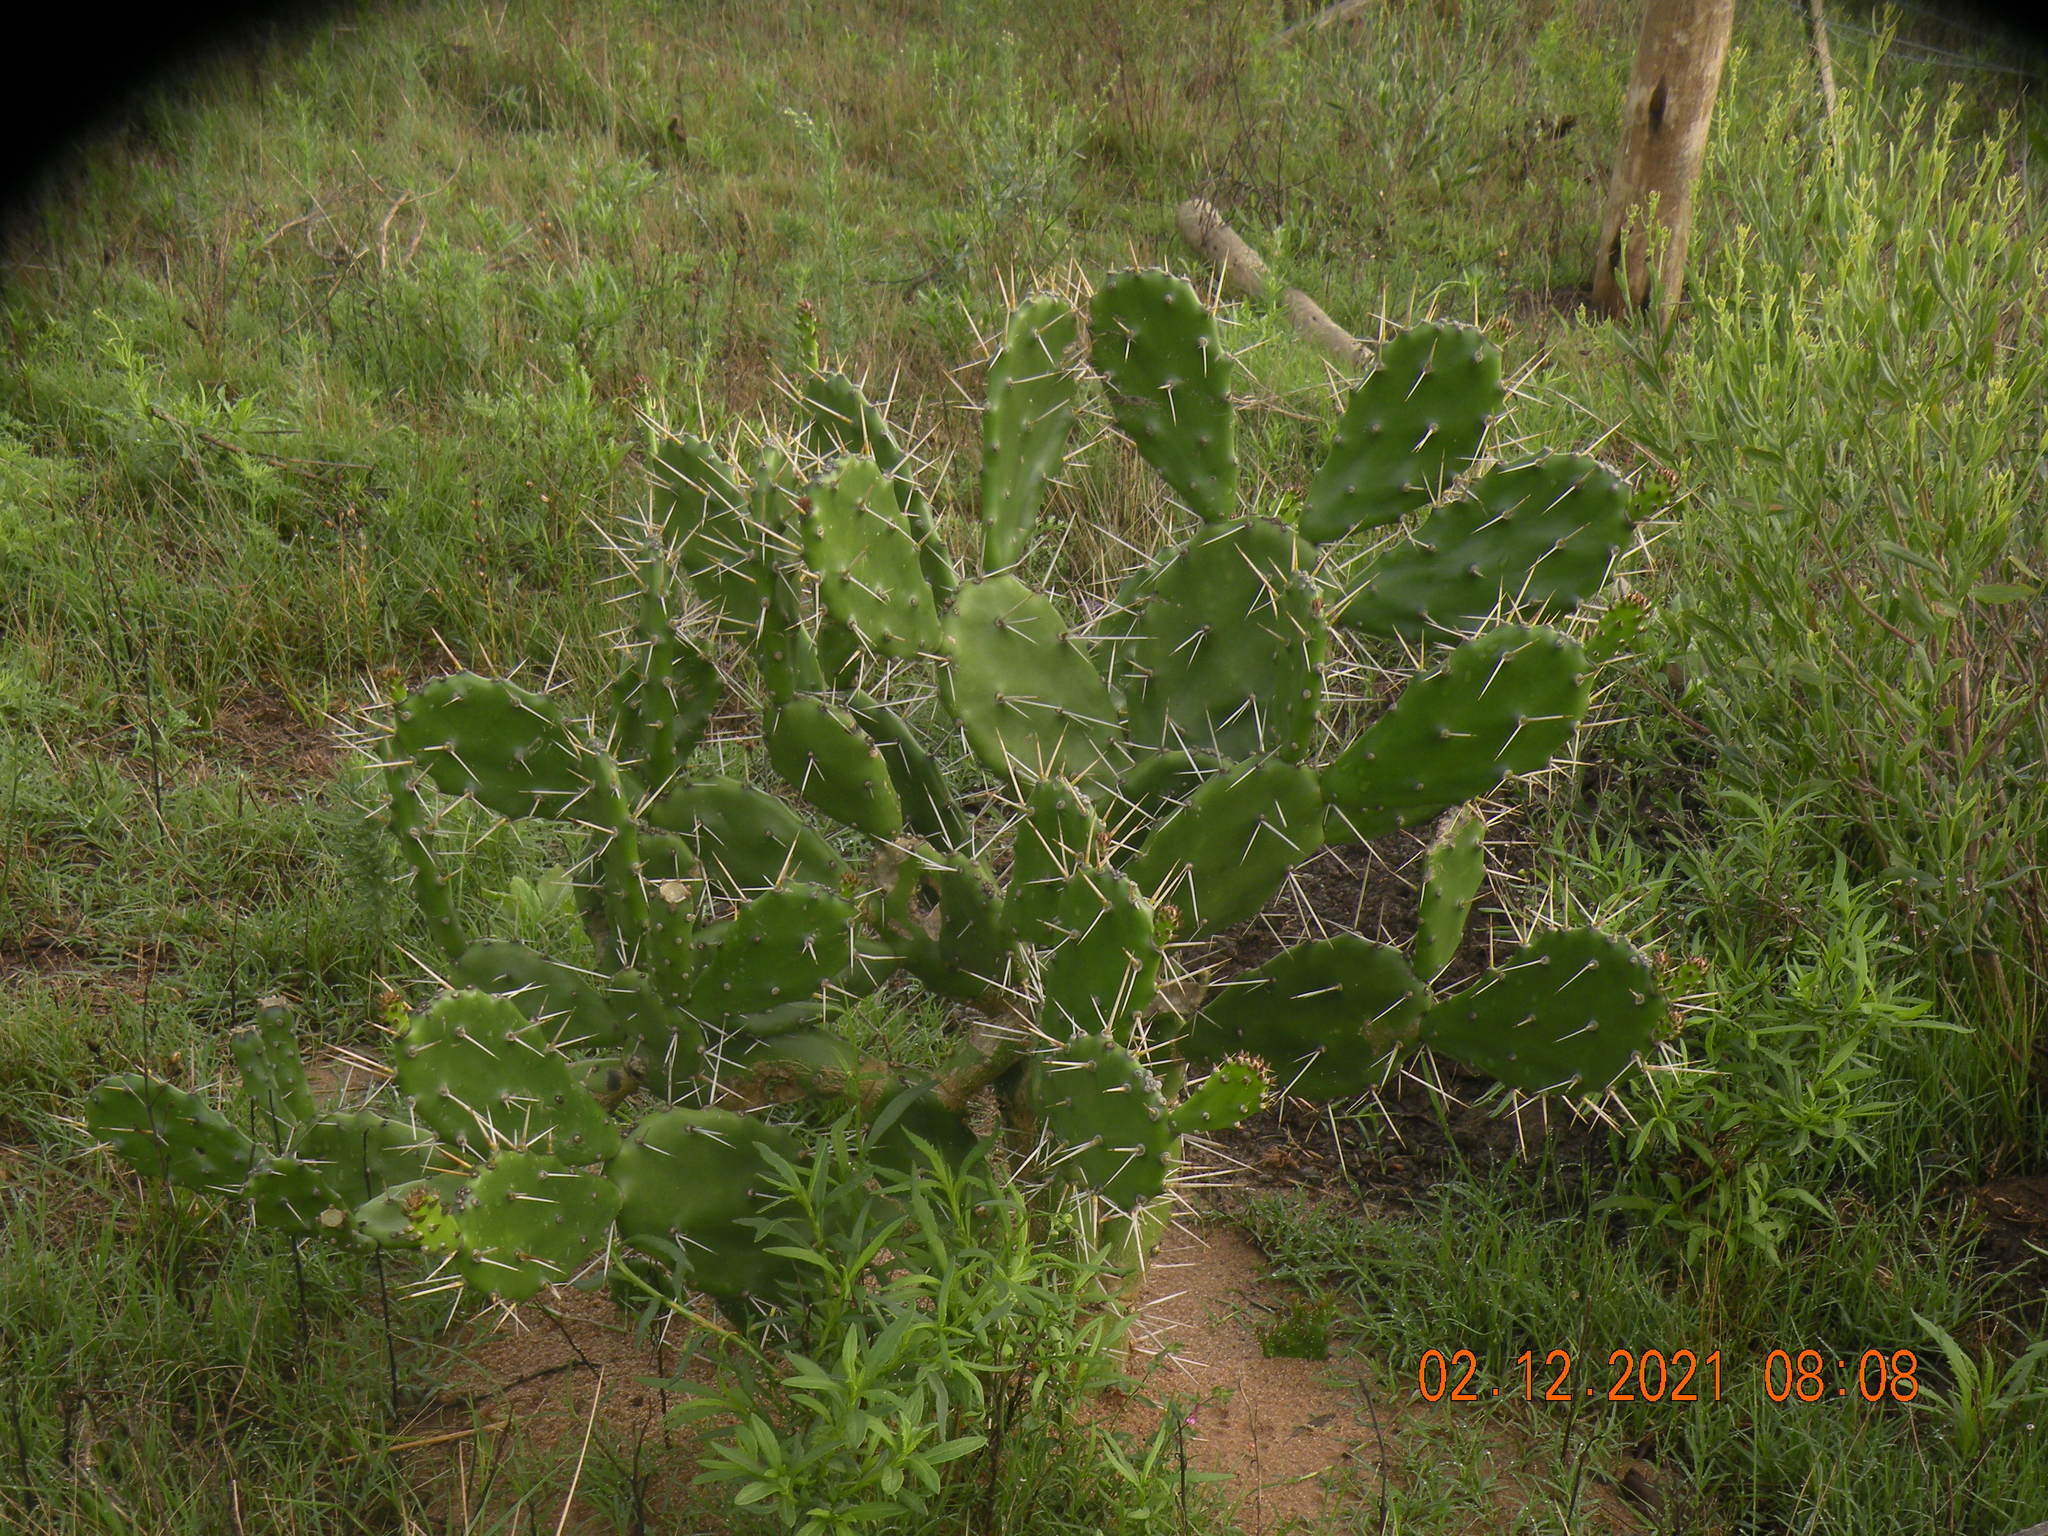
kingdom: Plantae
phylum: Tracheophyta
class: Magnoliopsida
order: Caryophyllales
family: Cactaceae
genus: Opuntia
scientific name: Opuntia arechavaletae
